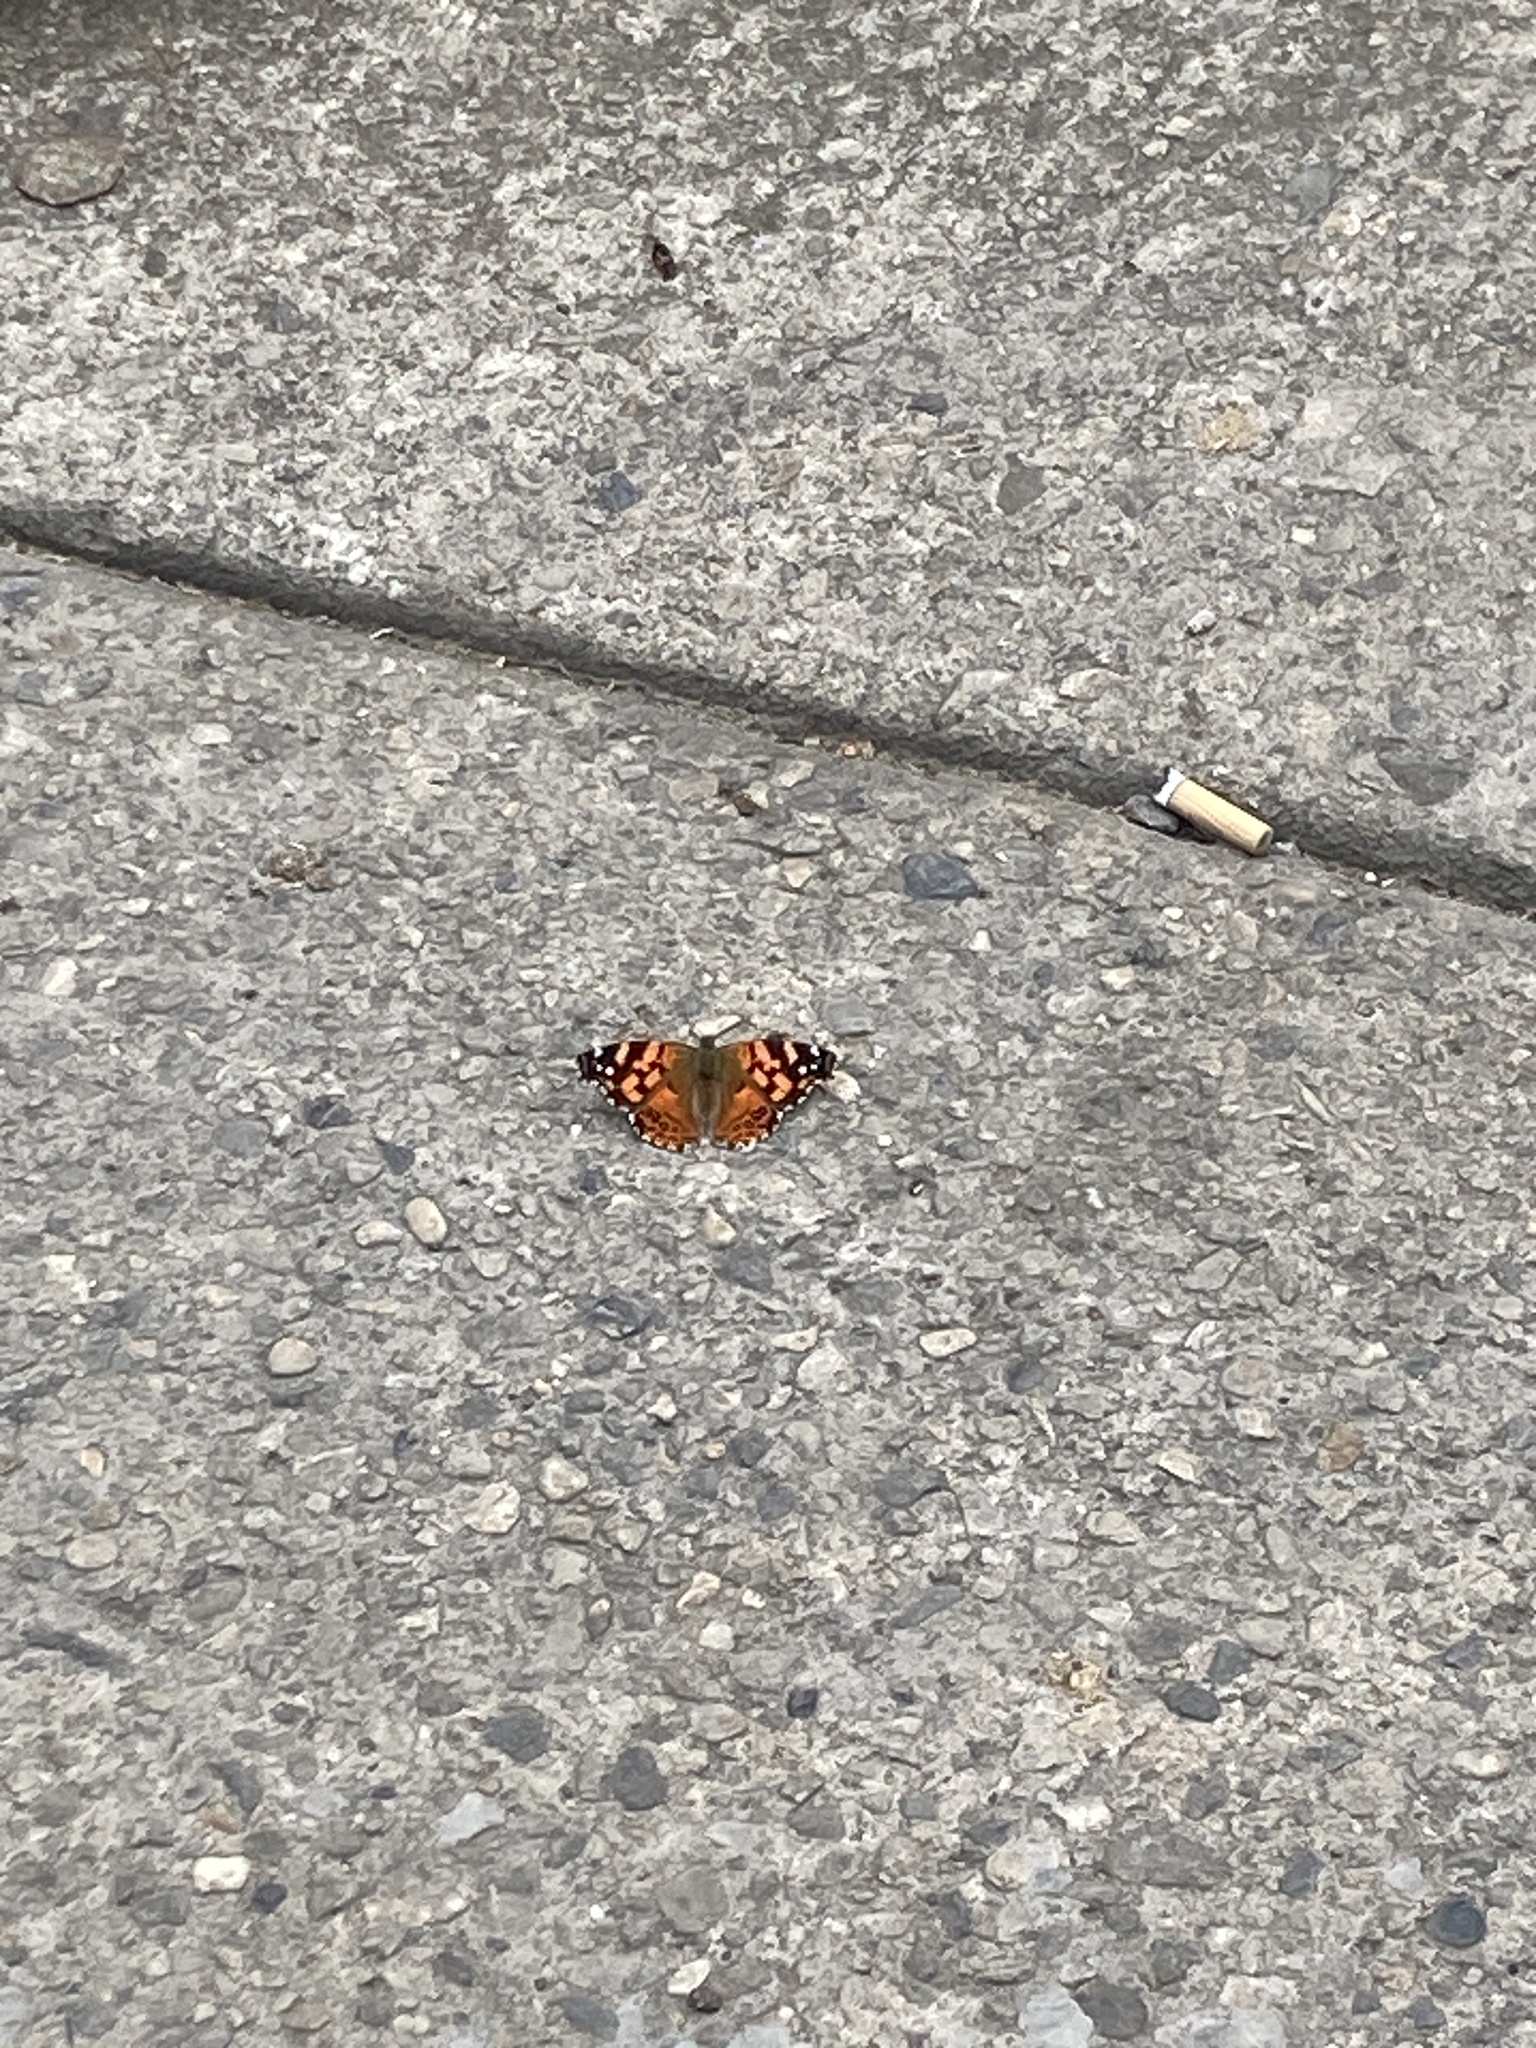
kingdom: Animalia
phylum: Arthropoda
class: Insecta
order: Lepidoptera
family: Nymphalidae
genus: Vanessa
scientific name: Vanessa carye
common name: Subtropical lady
